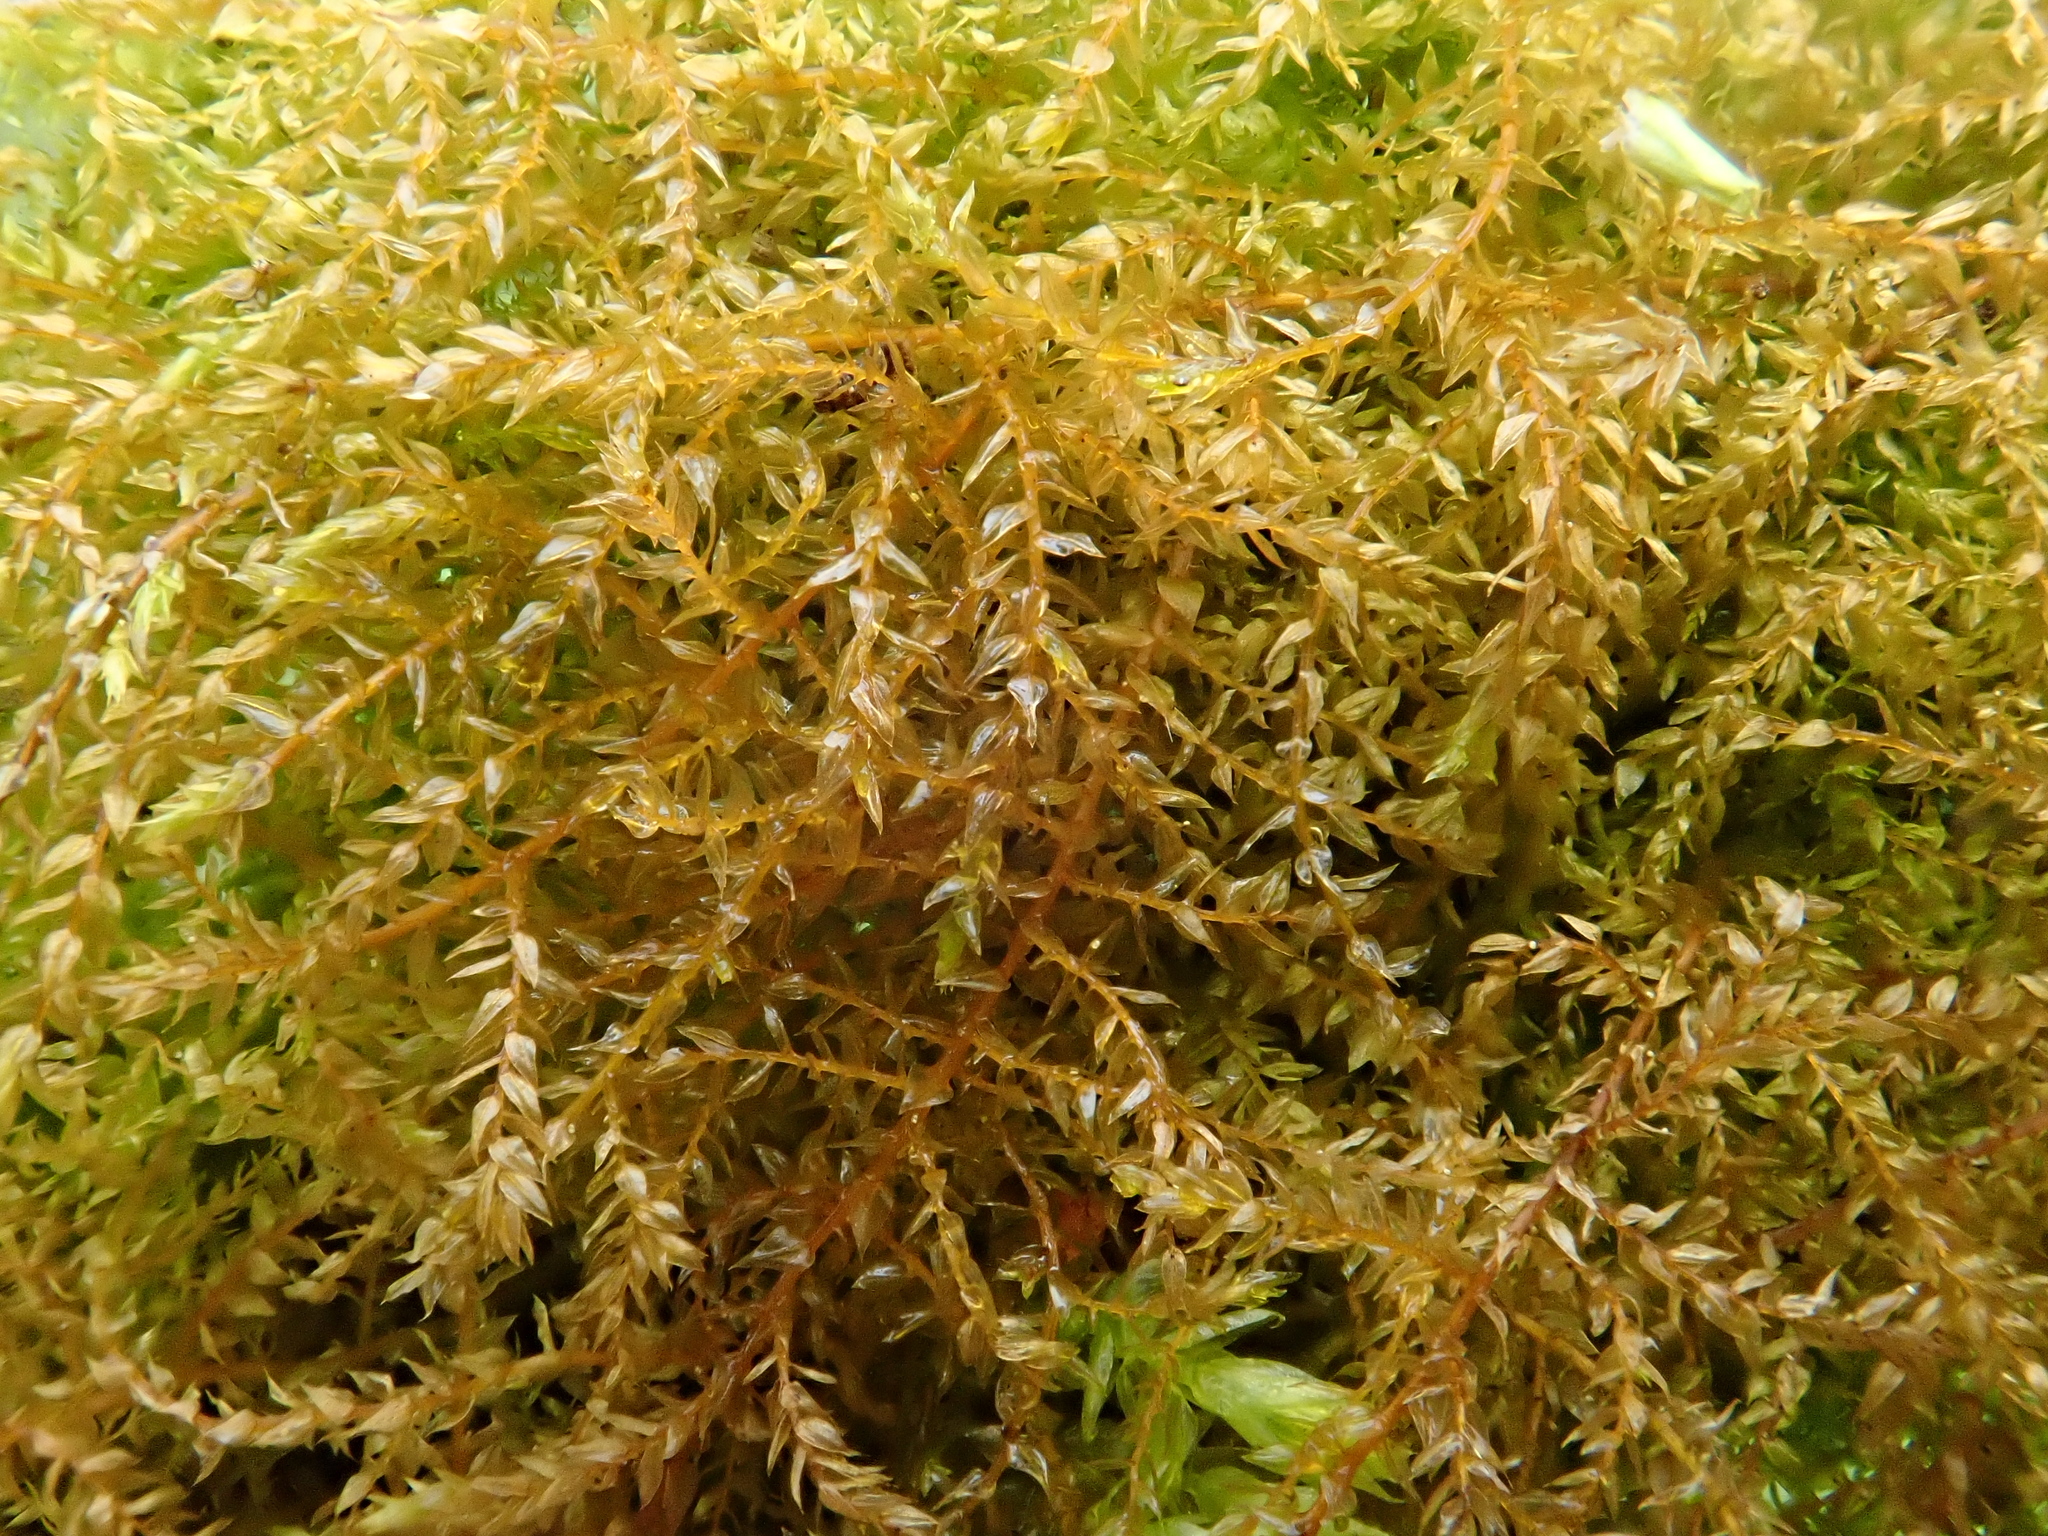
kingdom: Plantae
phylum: Bryophyta
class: Bryopsida
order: Hypnales
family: Brachytheciaceae
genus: Oxyrrhynchium
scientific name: Oxyrrhynchium hians
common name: Spreading beaked moss
